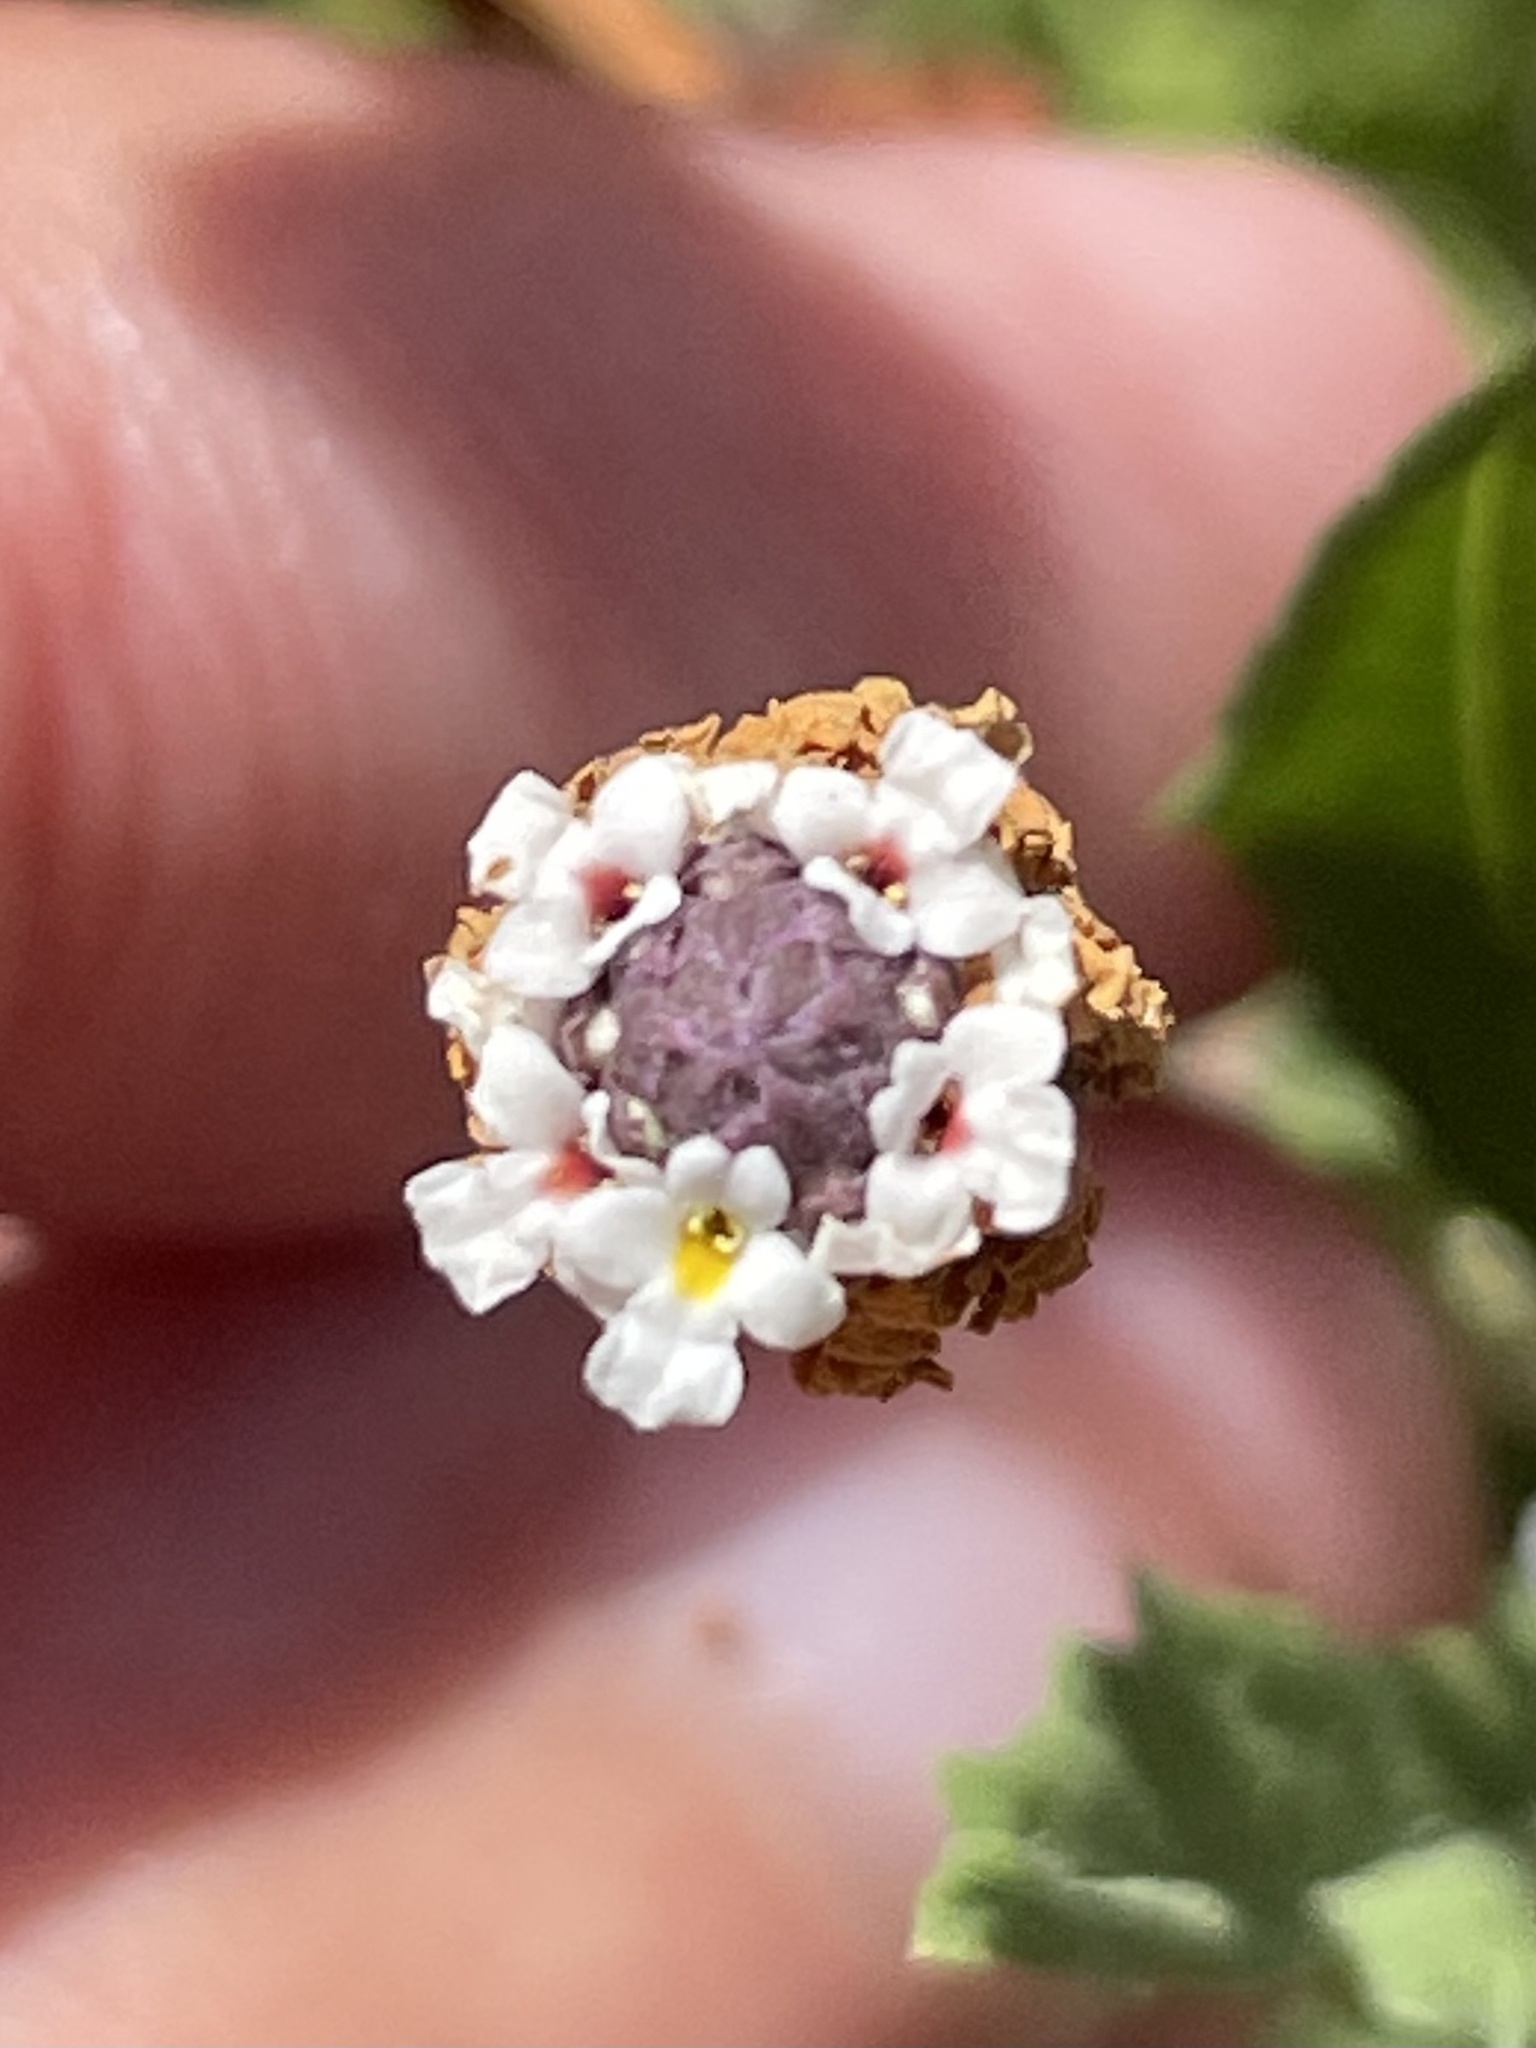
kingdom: Plantae
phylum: Tracheophyta
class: Magnoliopsida
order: Lamiales
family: Verbenaceae
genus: Phyla
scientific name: Phyla nodiflora
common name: Frogfruit
